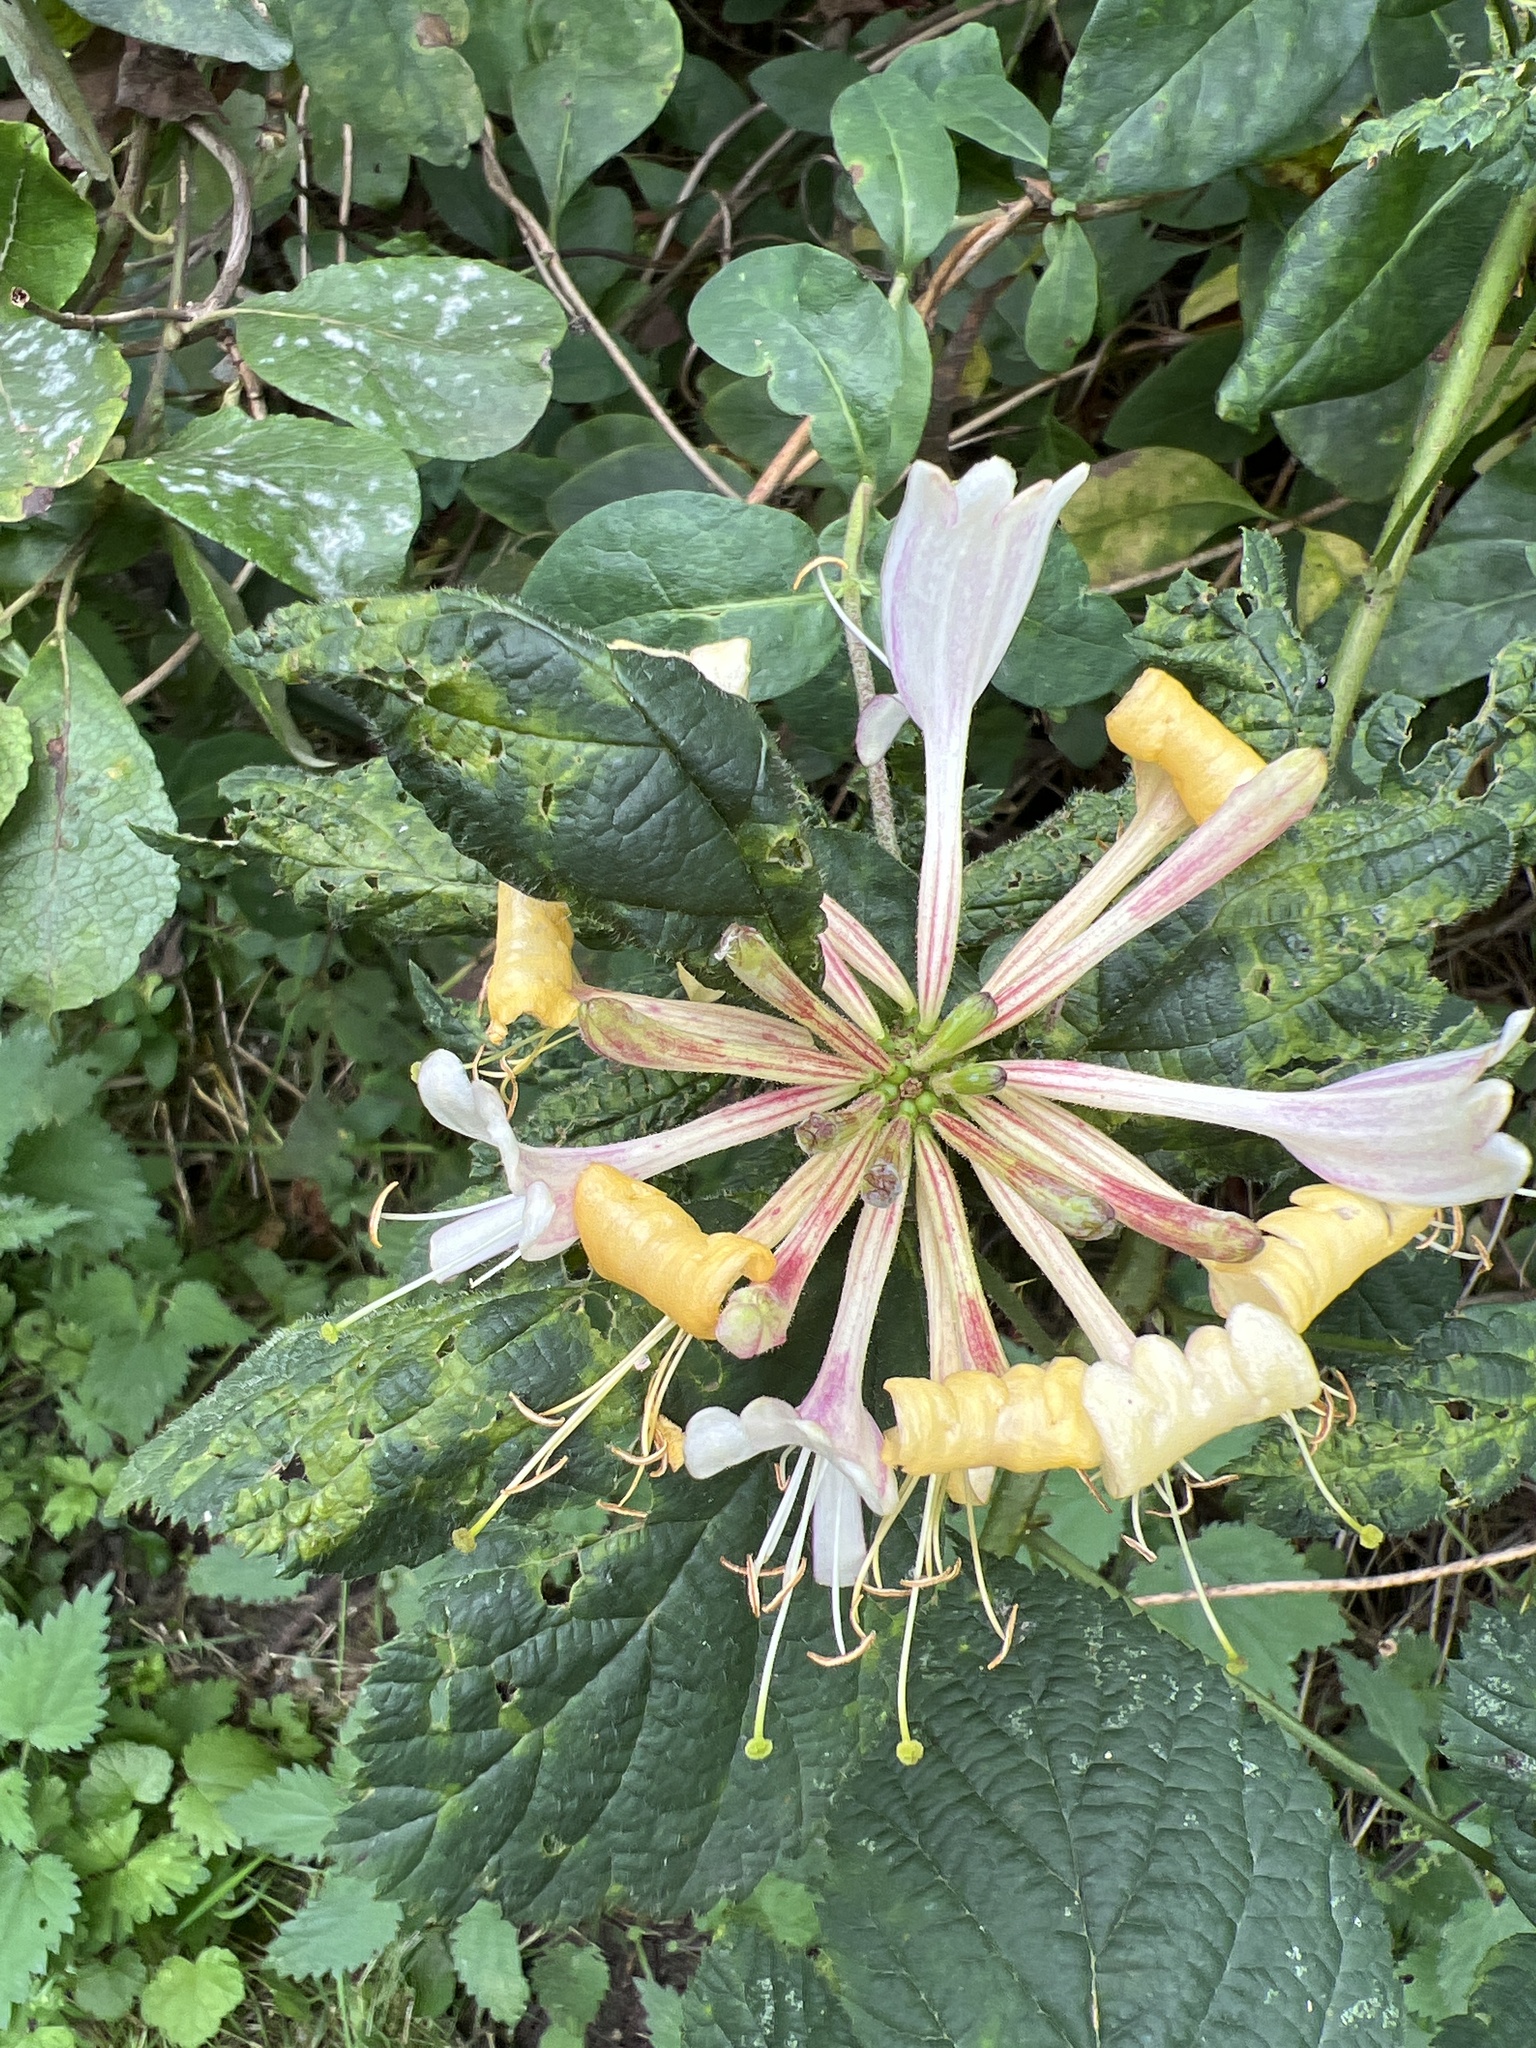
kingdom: Plantae
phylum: Tracheophyta
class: Magnoliopsida
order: Dipsacales
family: Caprifoliaceae
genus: Lonicera
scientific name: Lonicera periclymenum
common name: European honeysuckle
